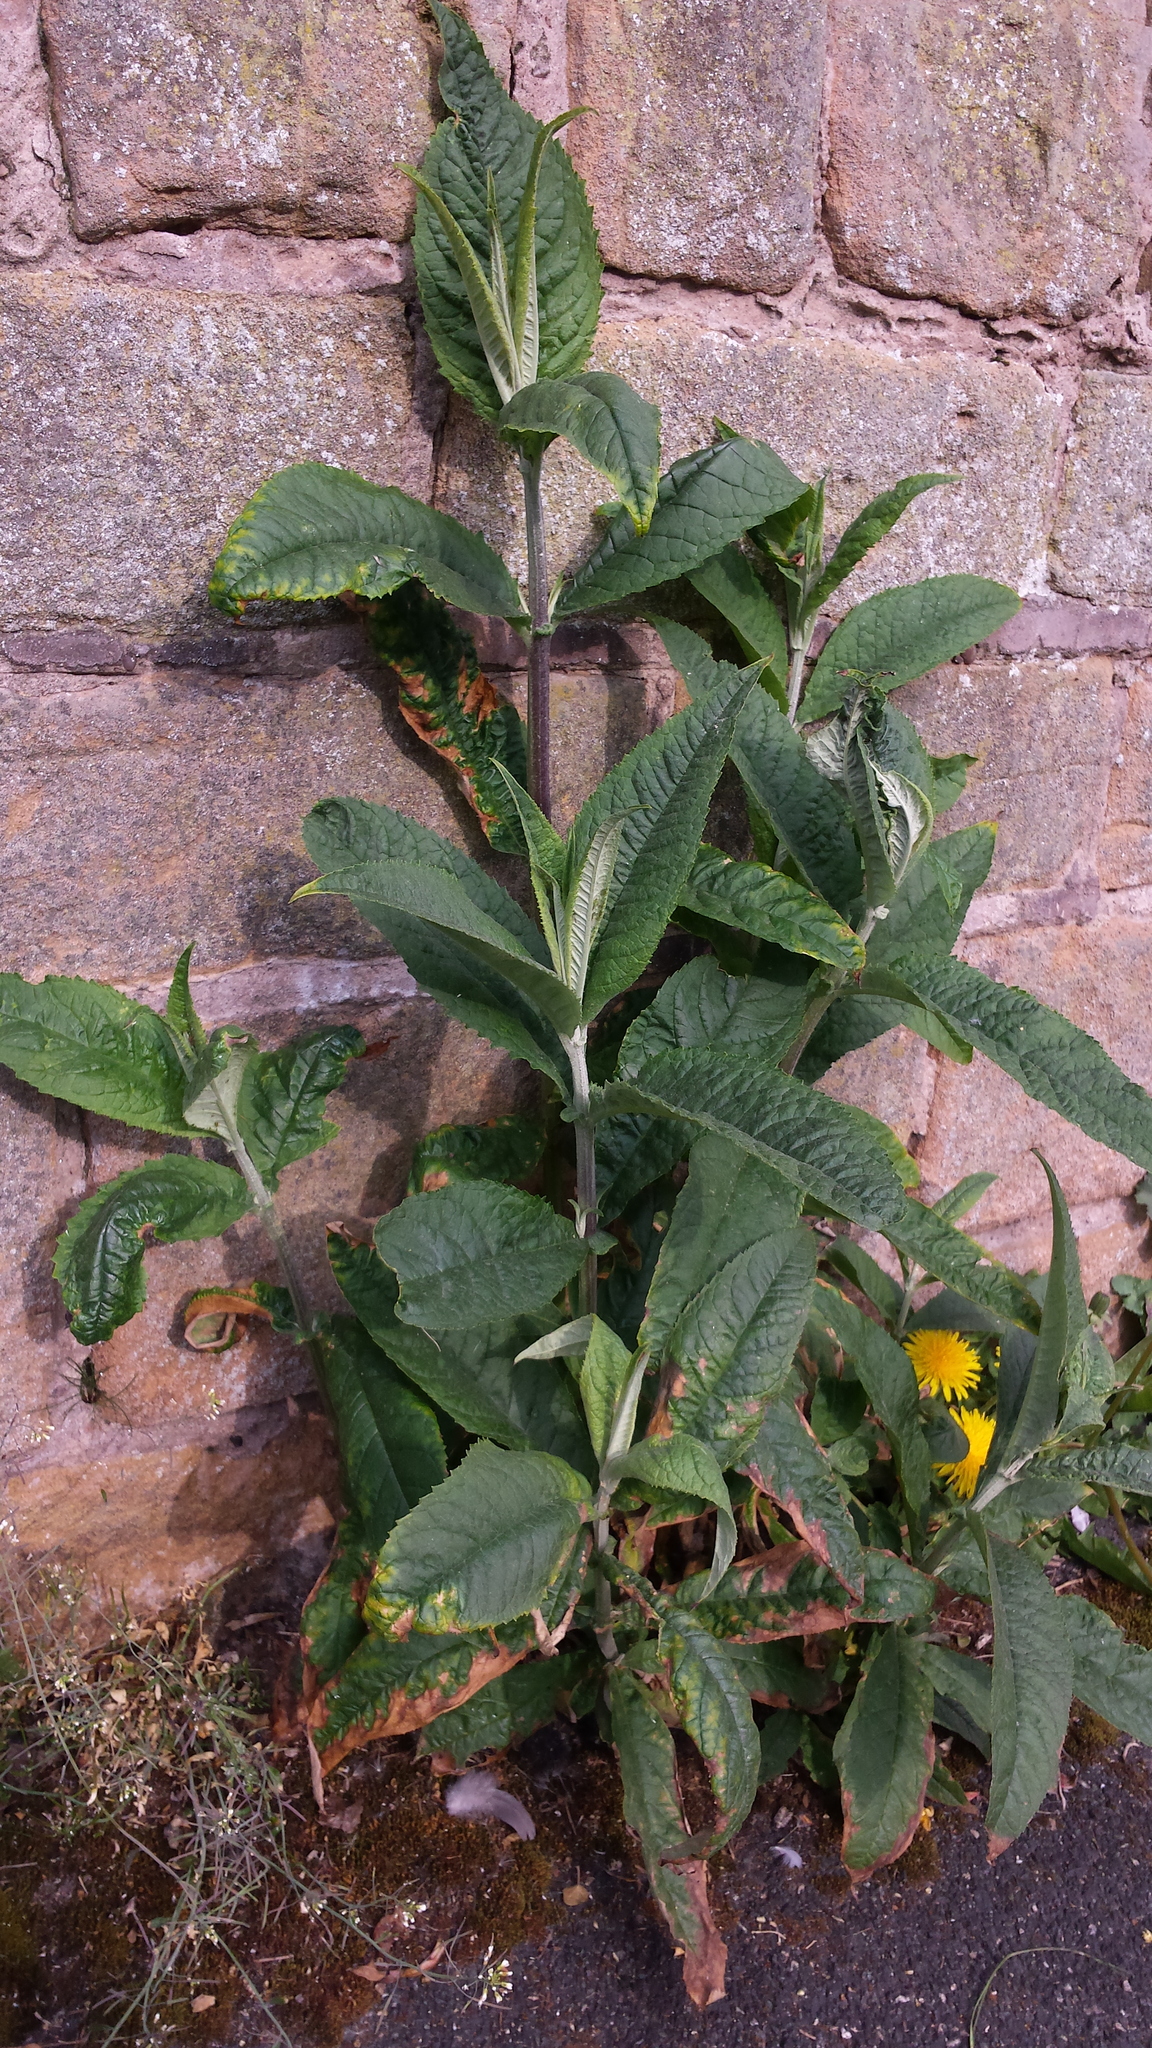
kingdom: Plantae
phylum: Tracheophyta
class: Magnoliopsida
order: Lamiales
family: Scrophulariaceae
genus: Buddleja
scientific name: Buddleja davidii
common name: Butterfly-bush
